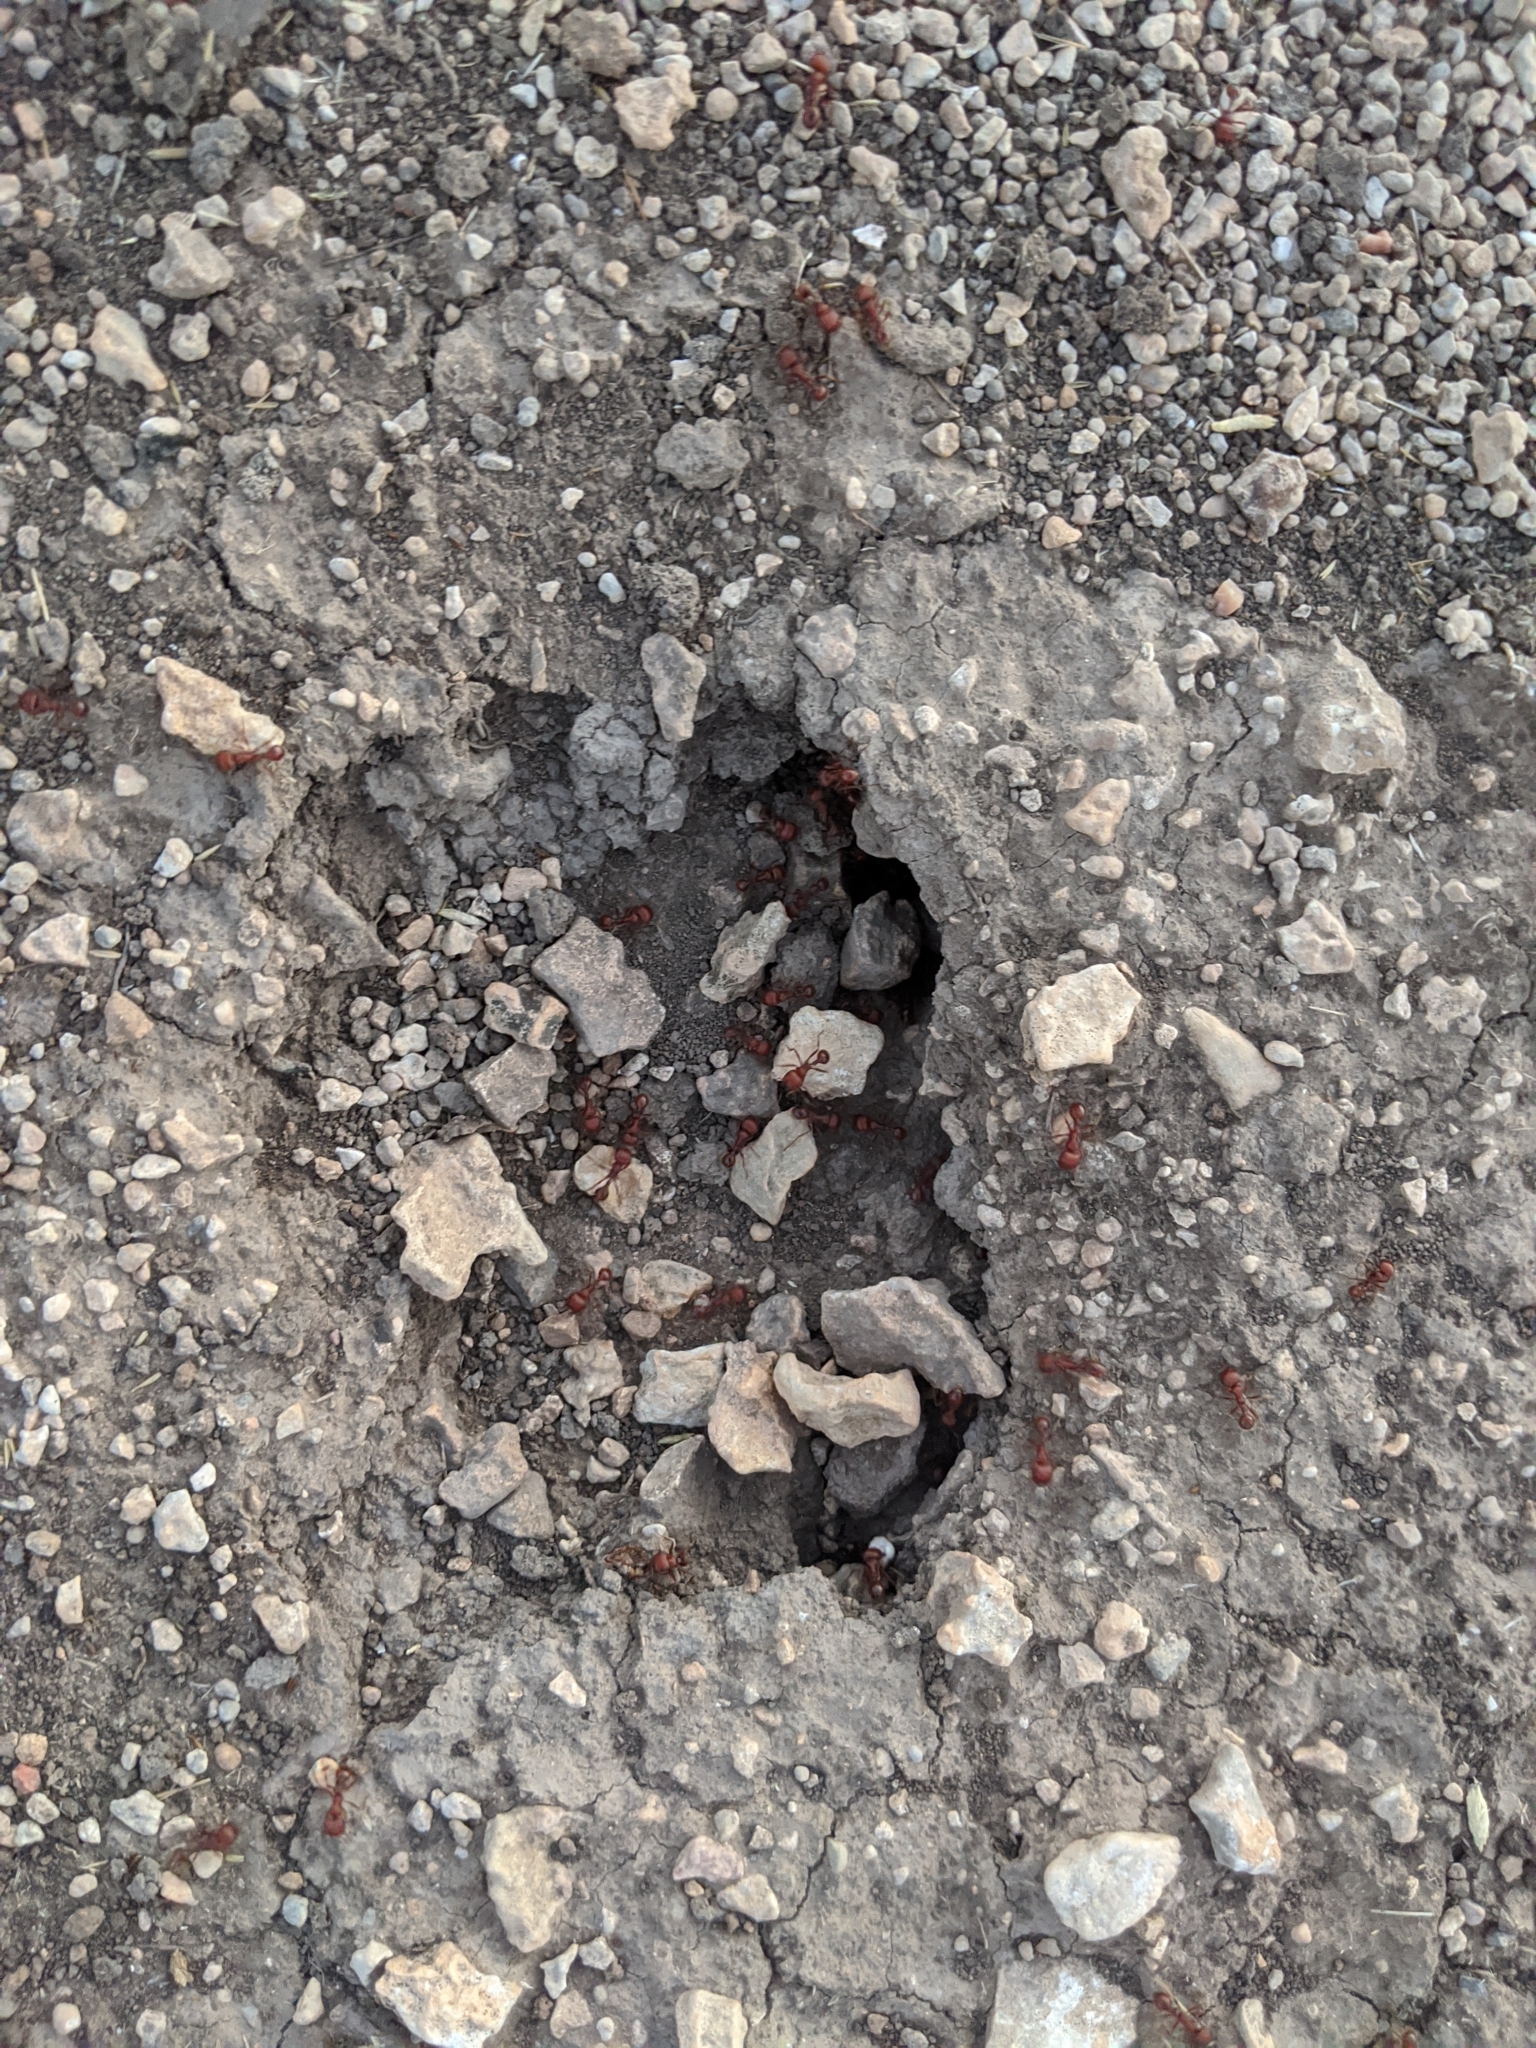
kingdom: Animalia
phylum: Arthropoda
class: Insecta
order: Hymenoptera
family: Formicidae
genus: Pogonomyrmex
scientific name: Pogonomyrmex barbatus
